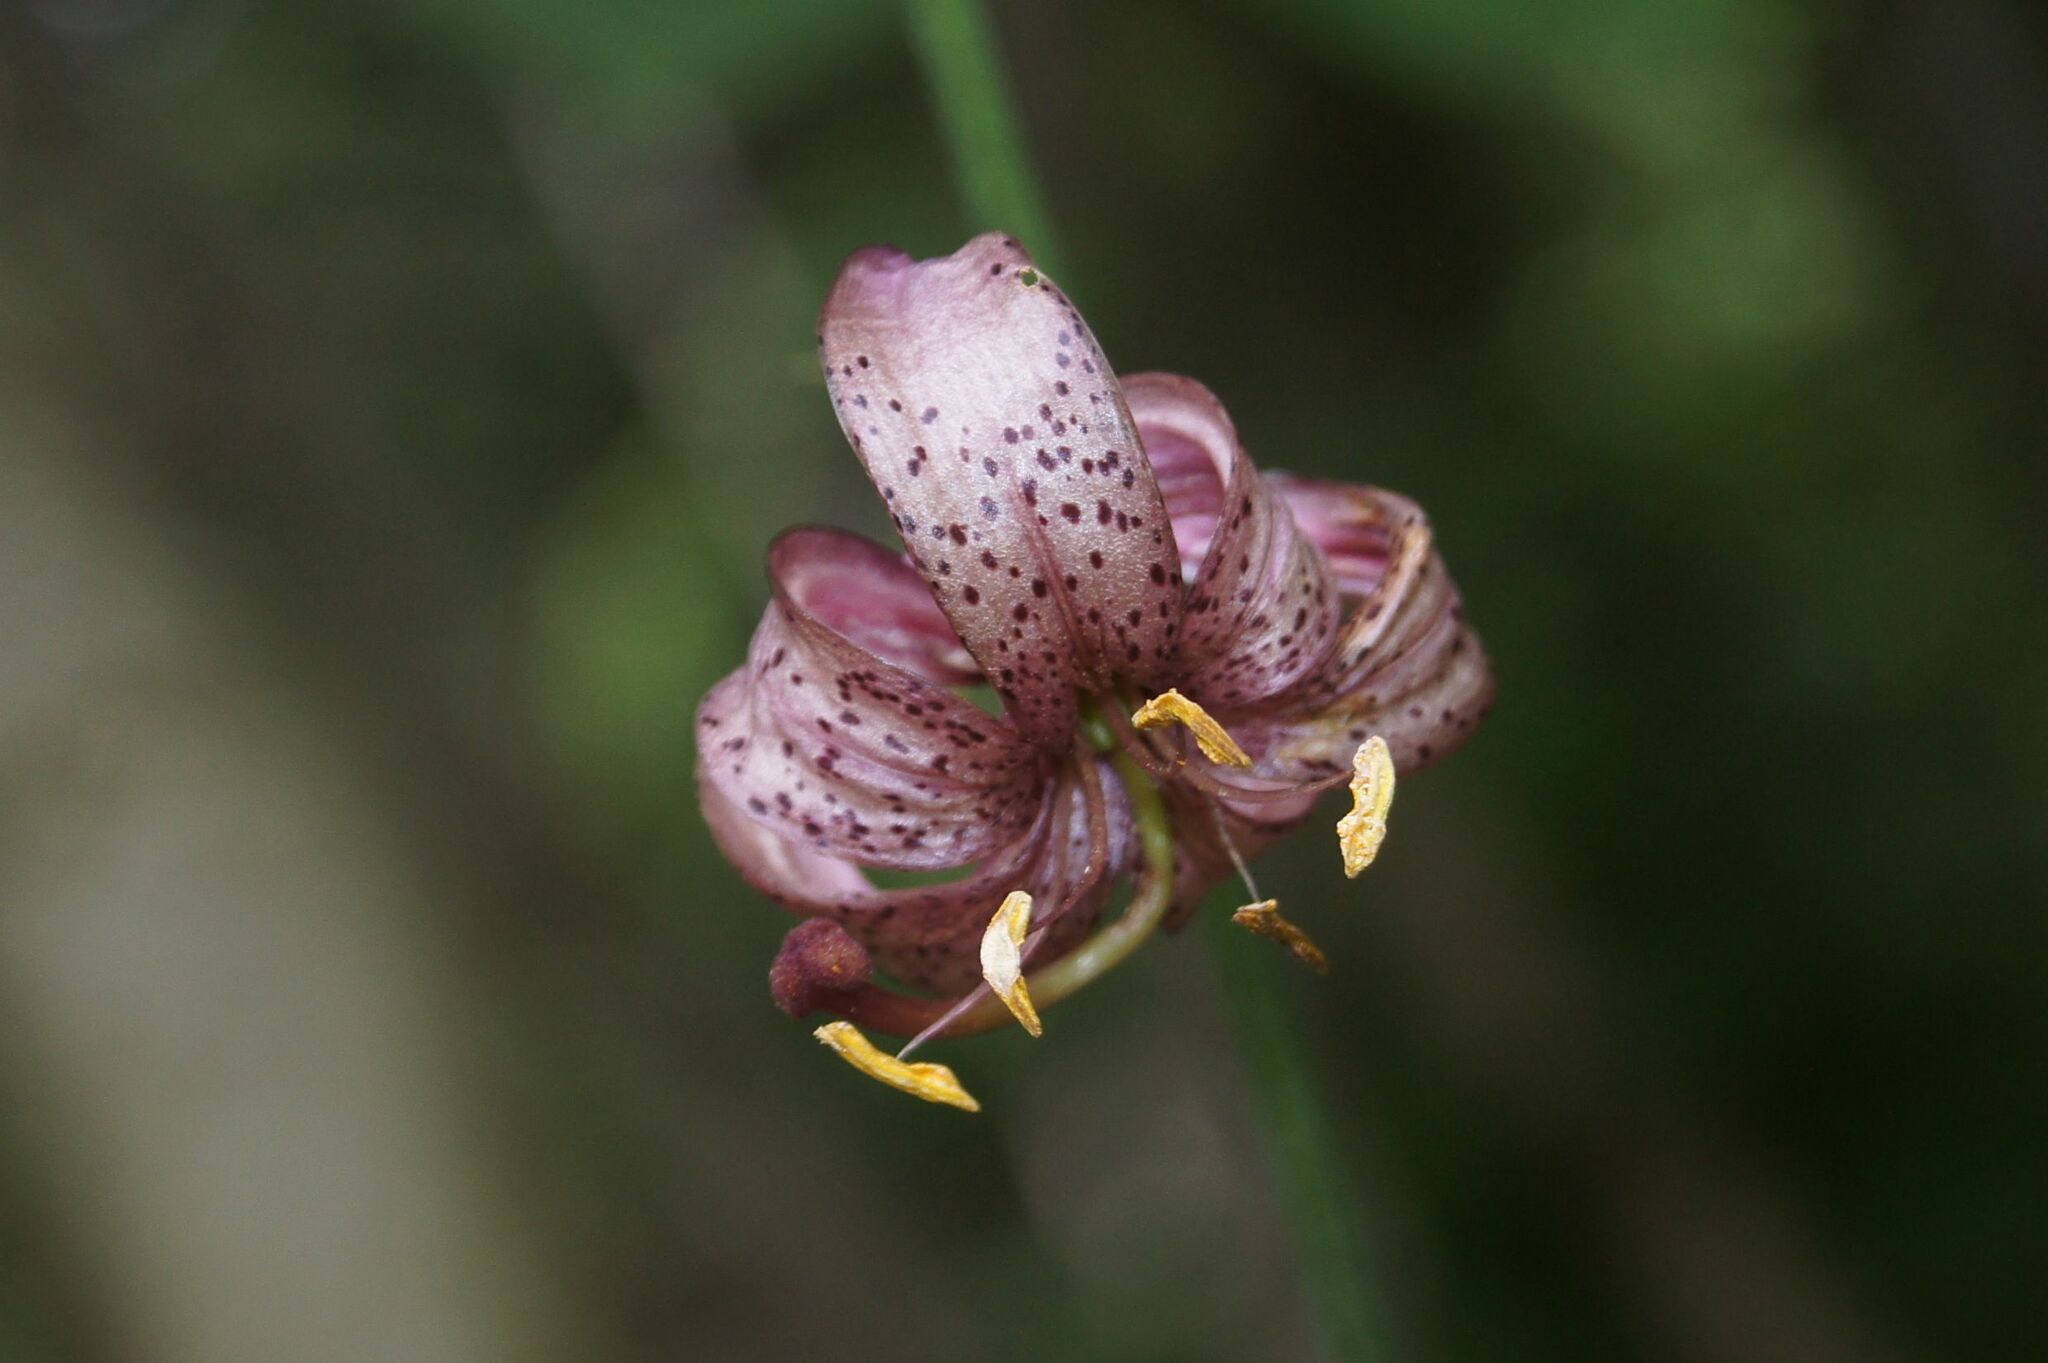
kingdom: Plantae
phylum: Tracheophyta
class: Liliopsida
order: Liliales
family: Liliaceae
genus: Lilium
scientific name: Lilium martagon
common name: Martagon lily
